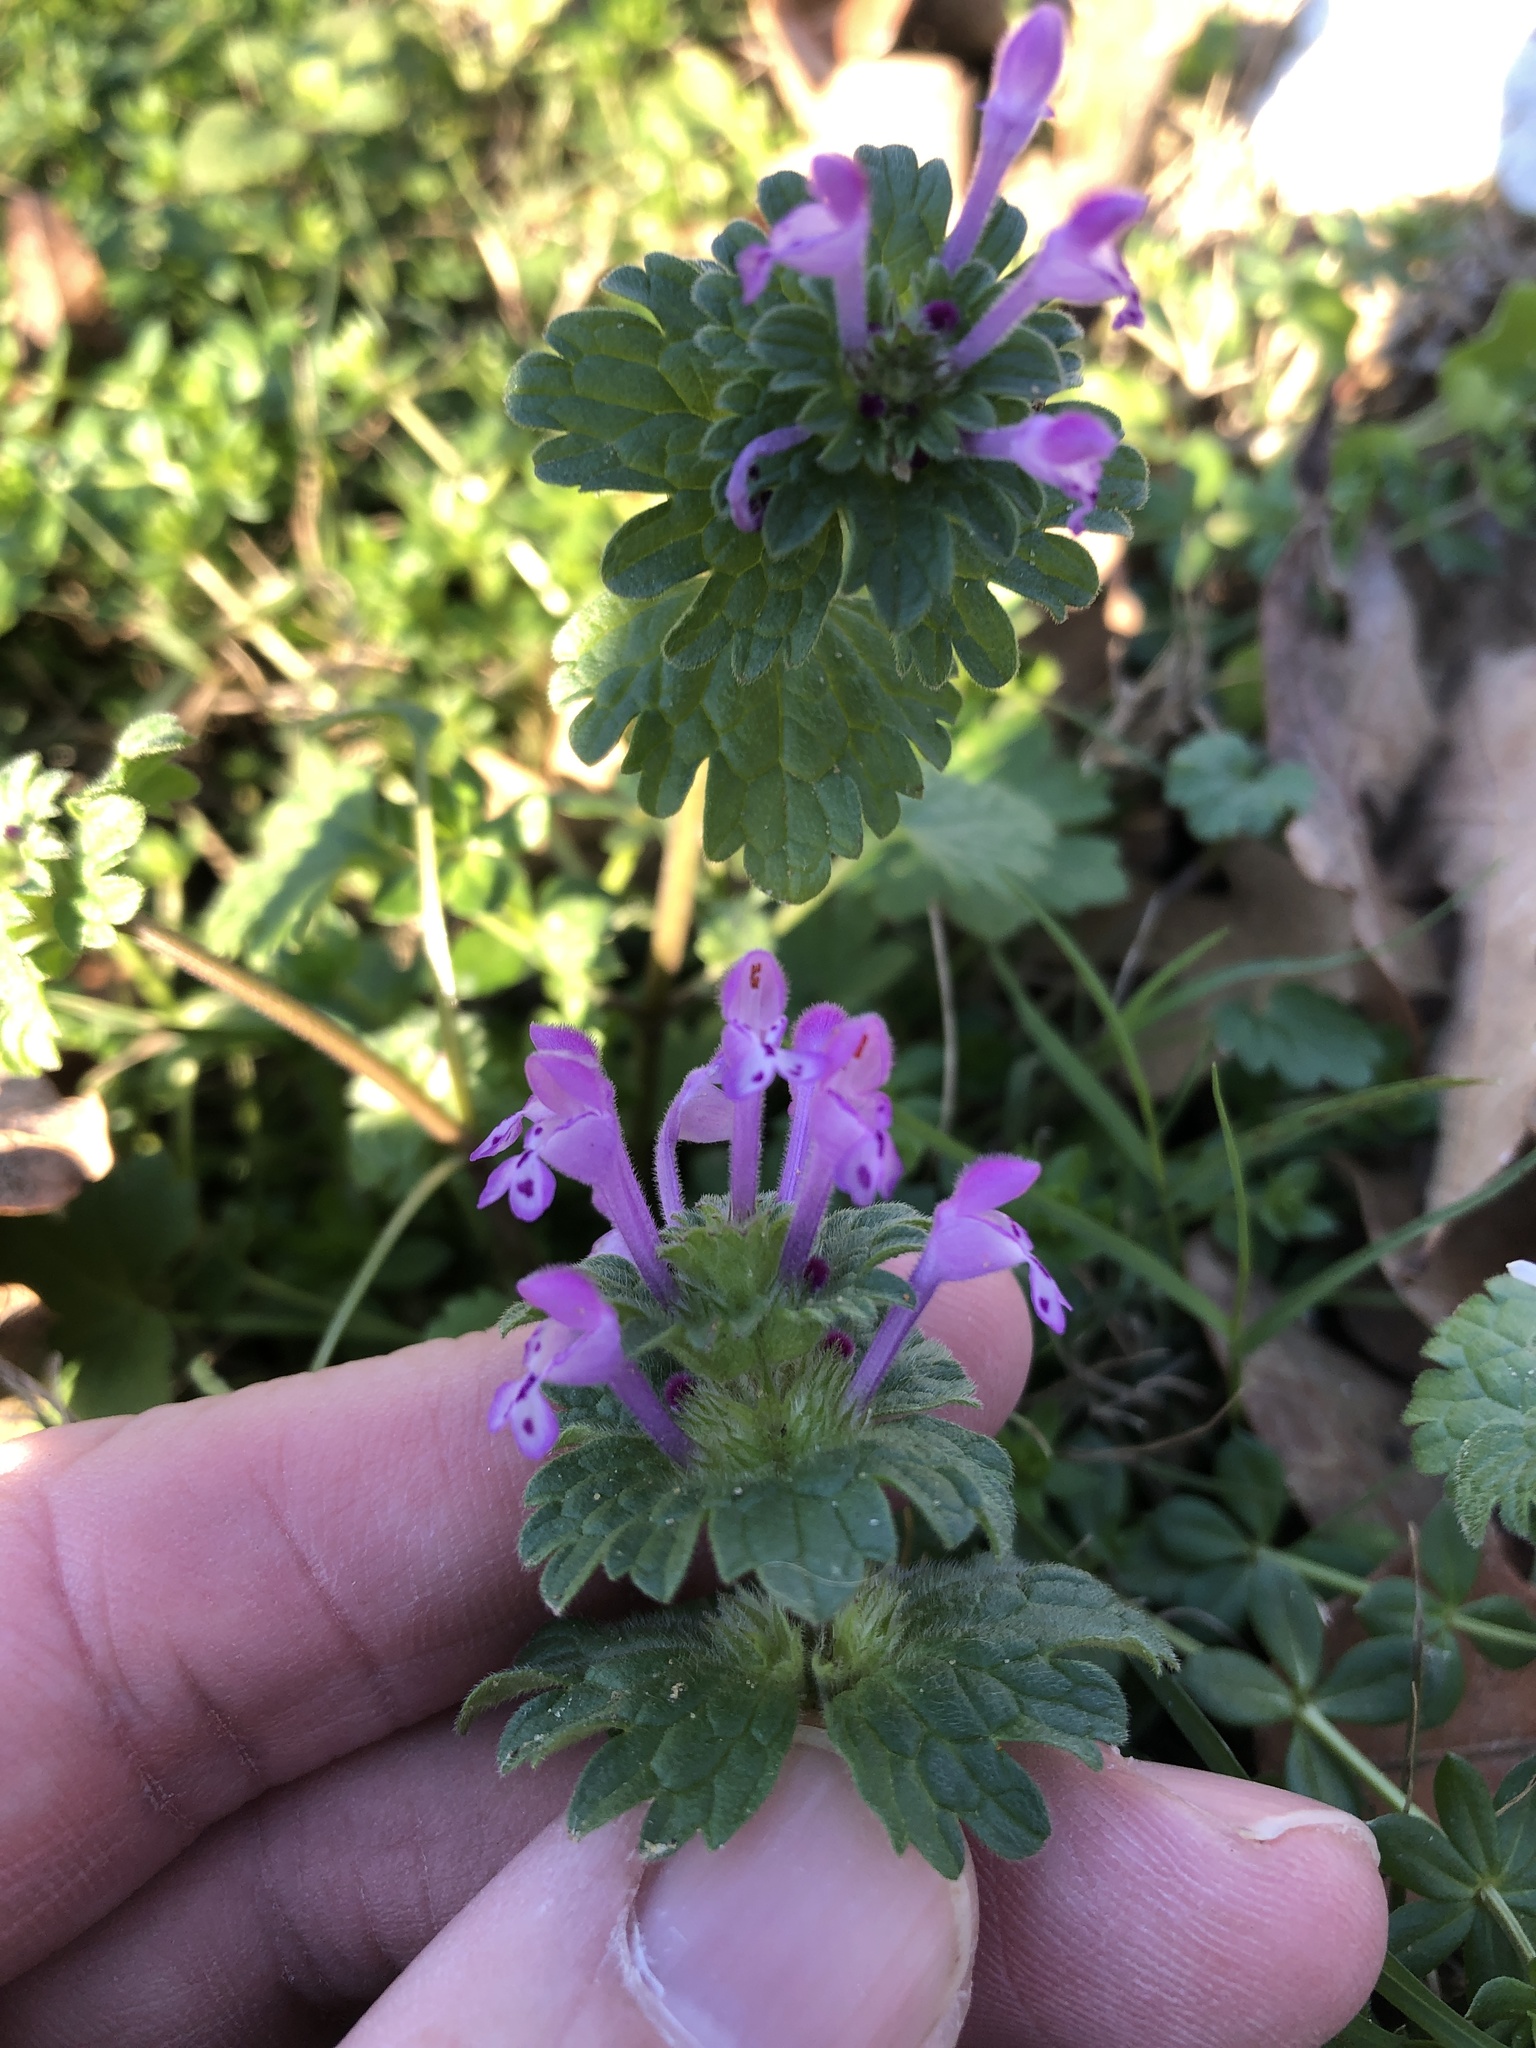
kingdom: Plantae
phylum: Tracheophyta
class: Magnoliopsida
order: Lamiales
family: Lamiaceae
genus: Lamium
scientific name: Lamium amplexicaule
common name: Henbit dead-nettle
